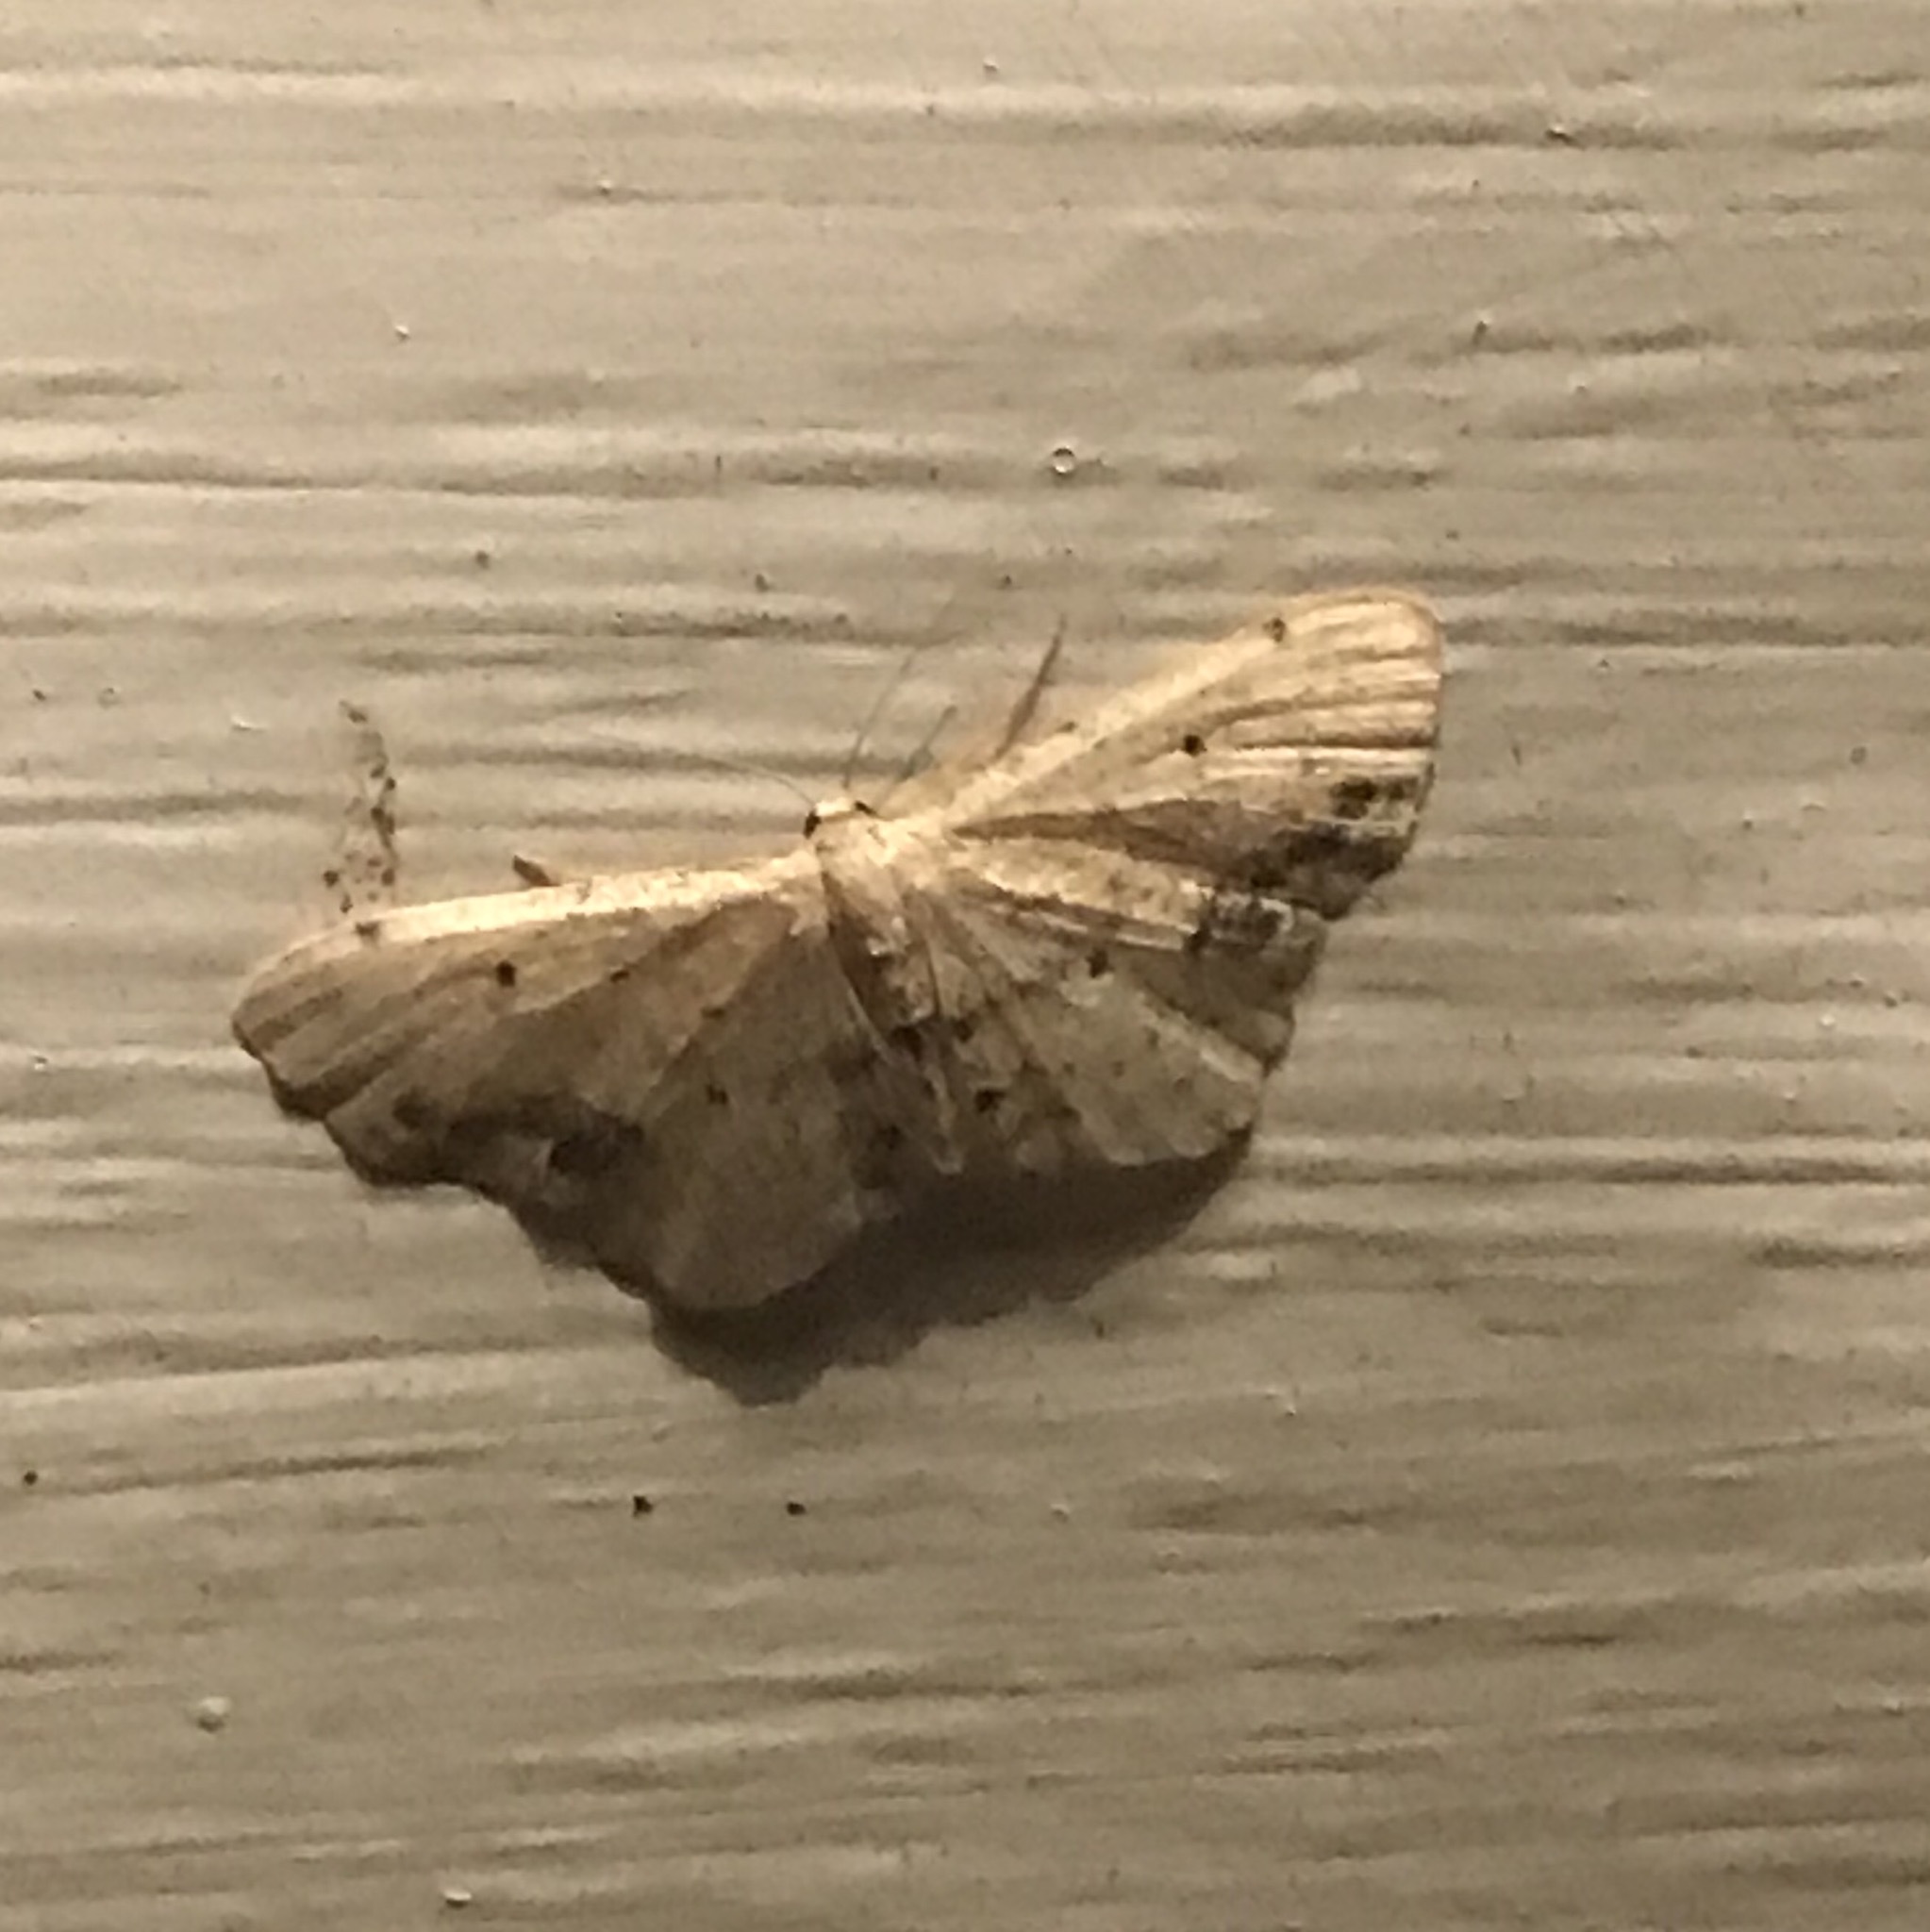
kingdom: Animalia
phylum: Arthropoda
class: Insecta
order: Lepidoptera
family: Geometridae
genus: Idaea
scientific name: Idaea dimidiata
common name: Single-dotted wave
